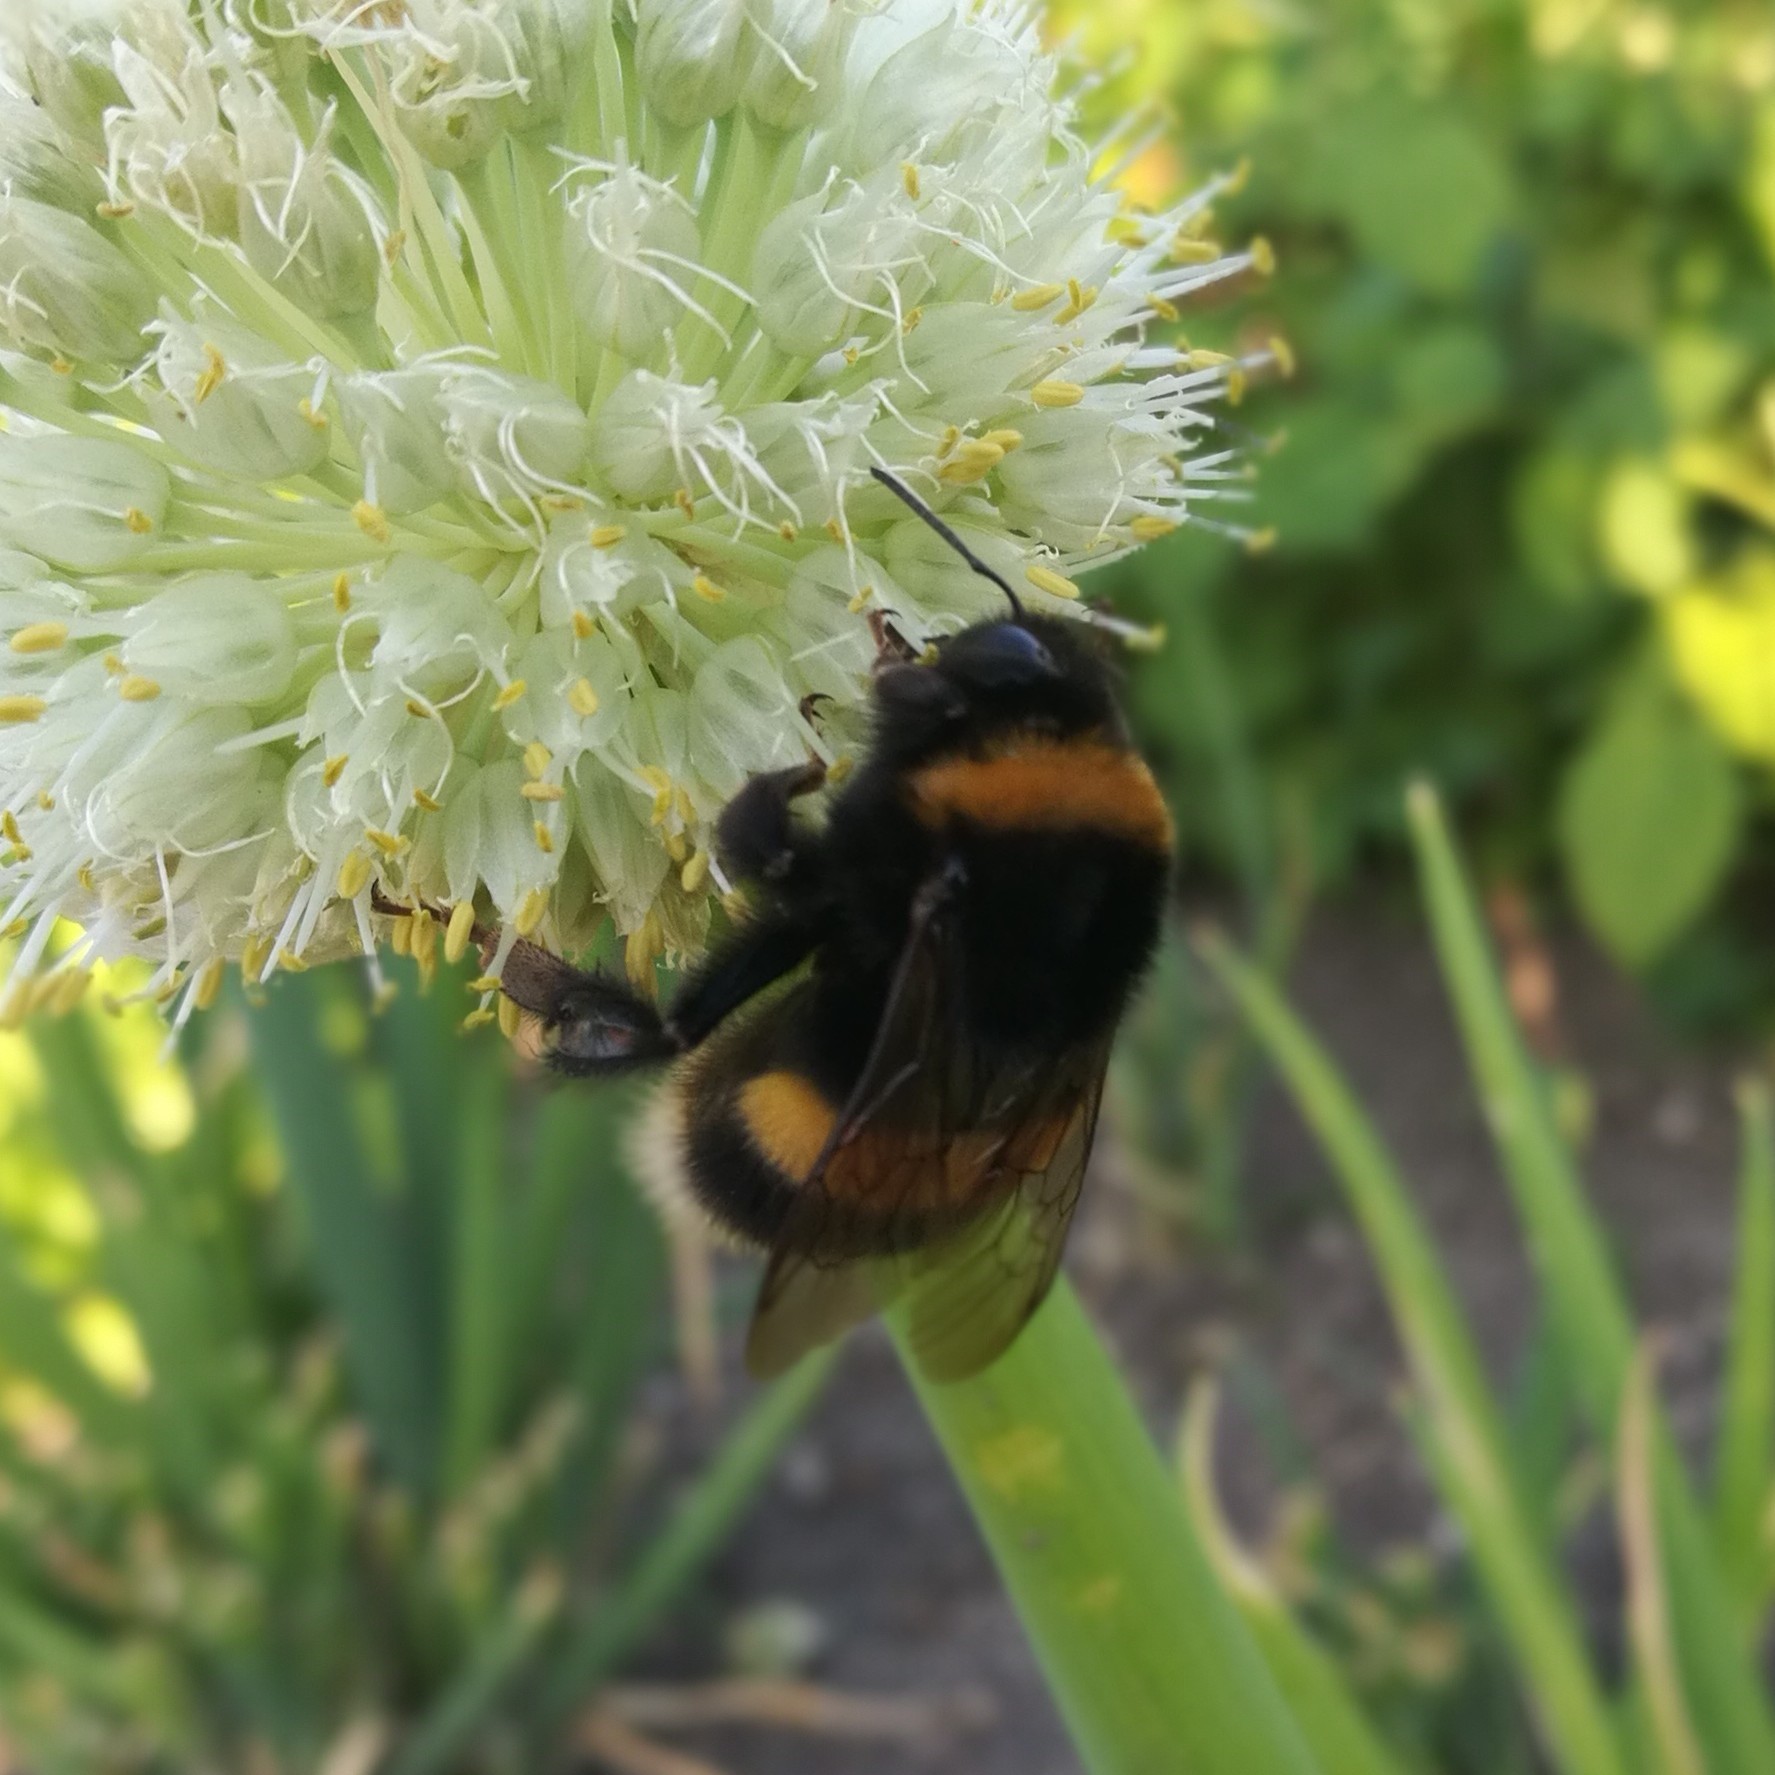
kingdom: Animalia
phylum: Arthropoda
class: Insecta
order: Hymenoptera
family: Apidae
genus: Bombus
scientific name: Bombus
